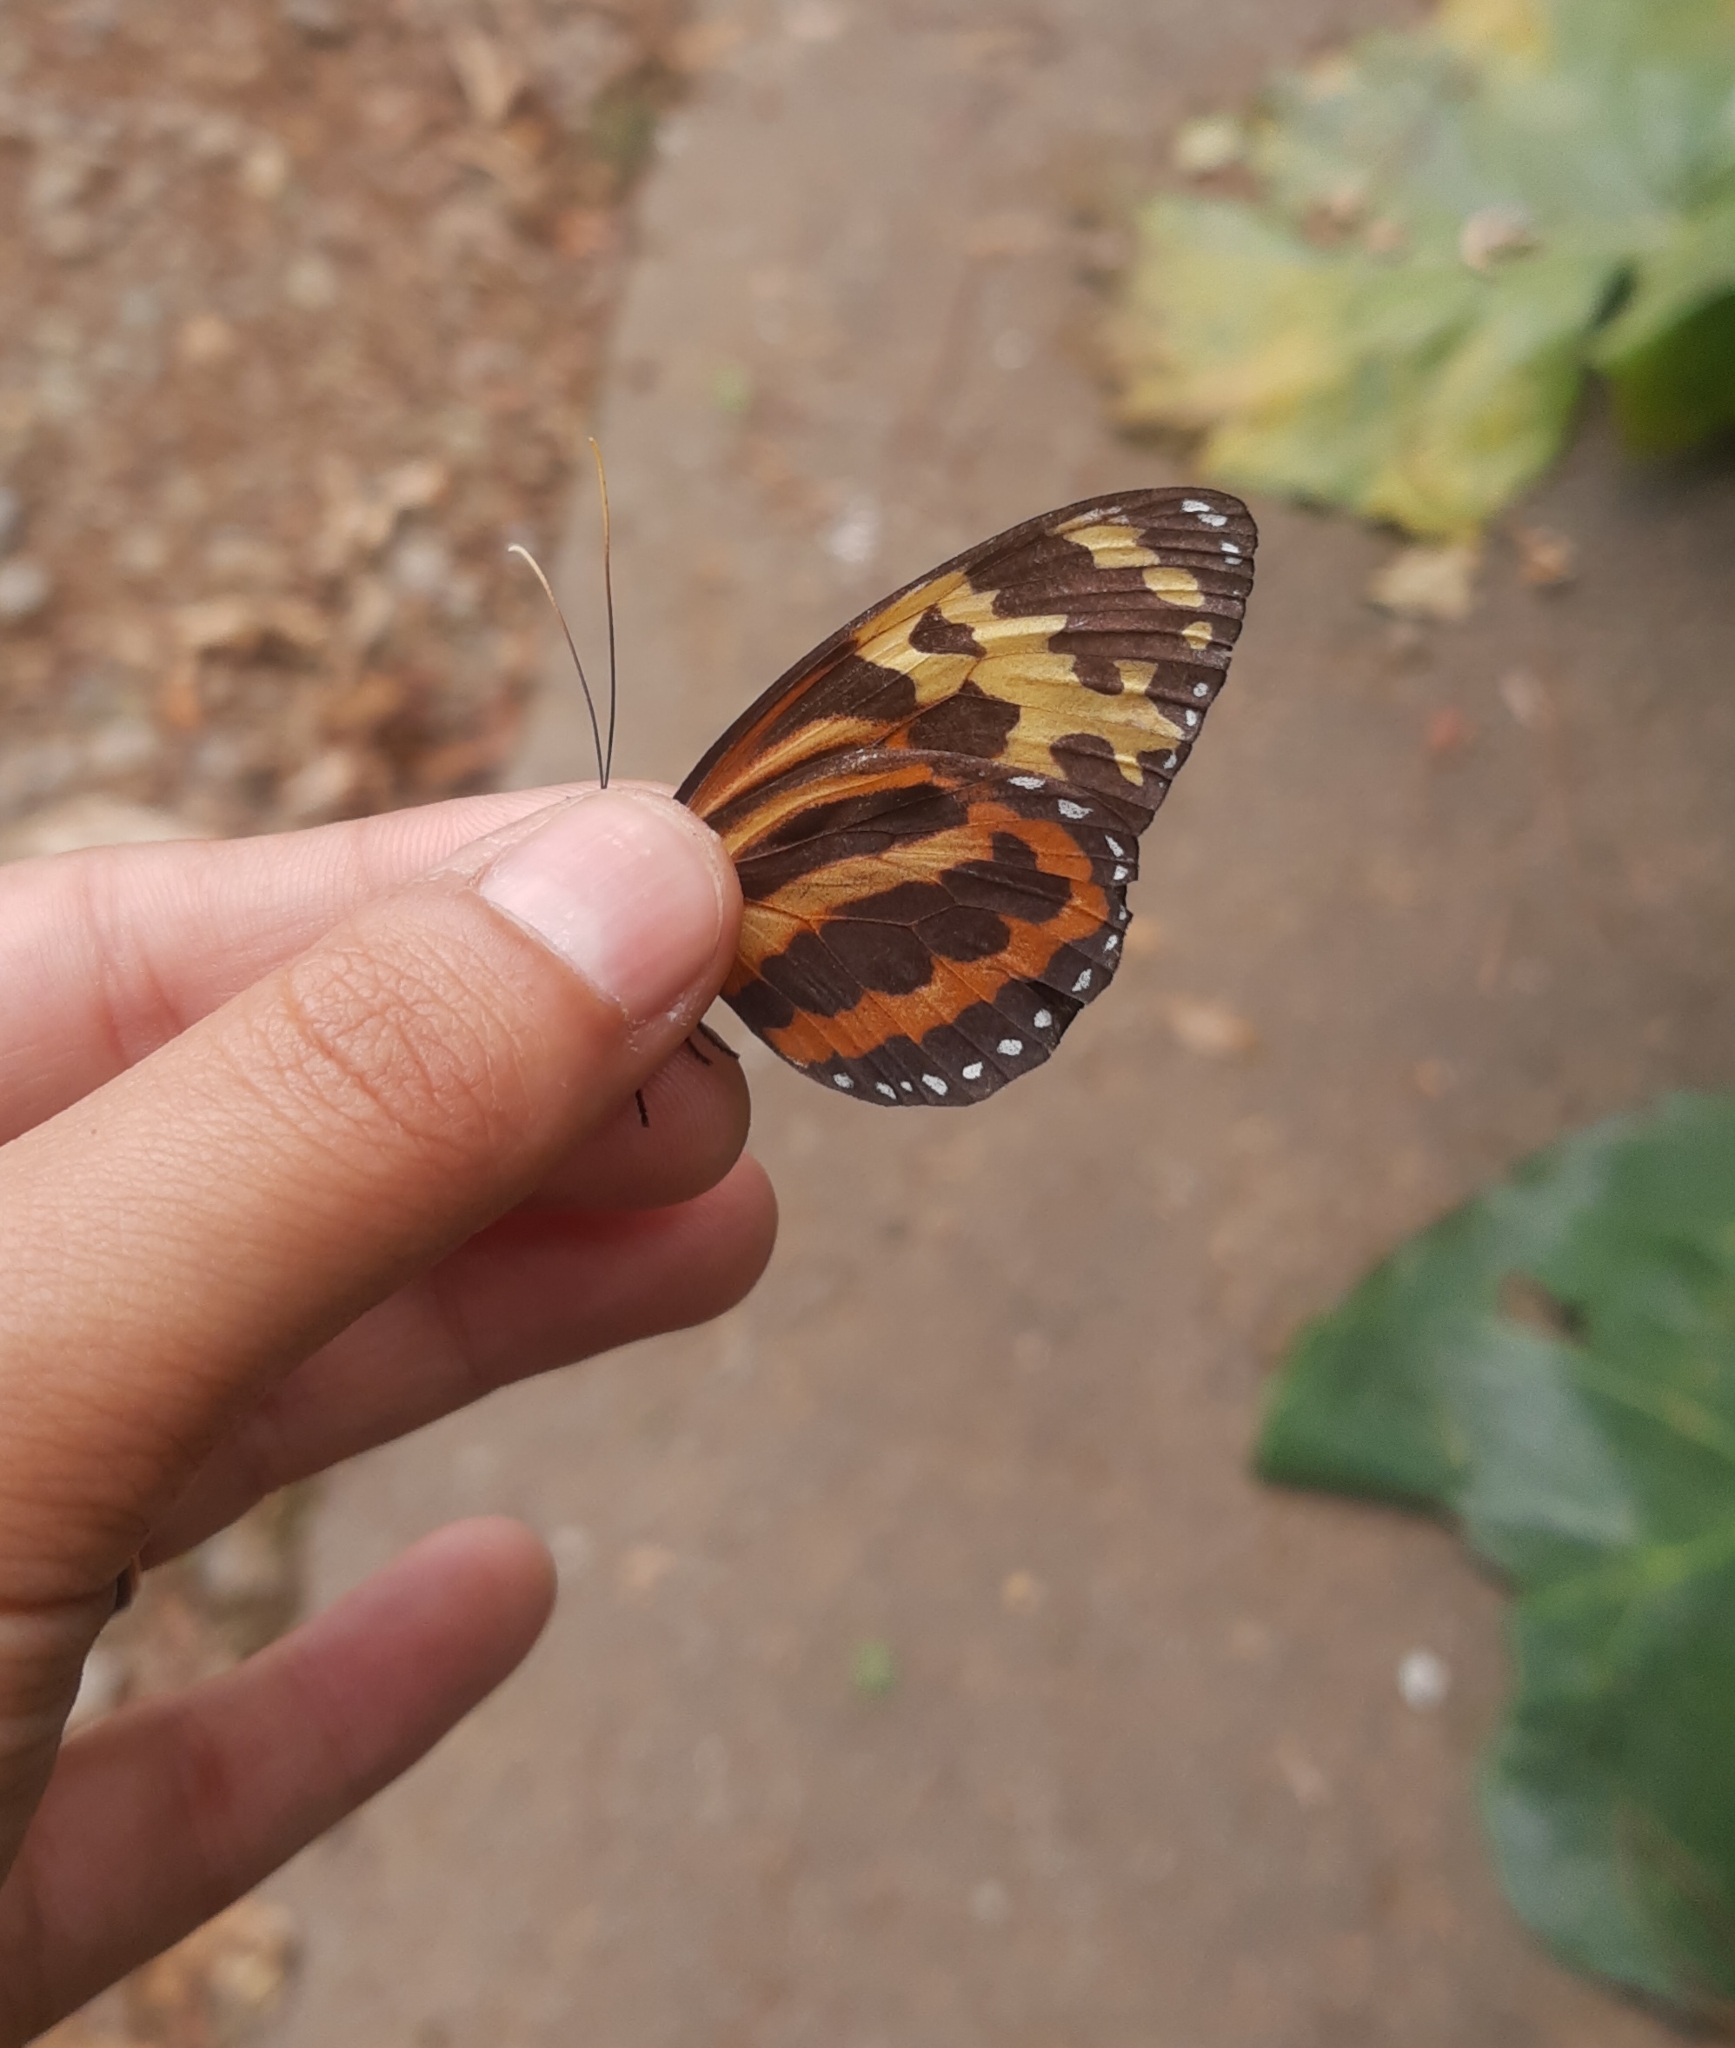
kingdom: Animalia
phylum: Arthropoda
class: Insecta
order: Lepidoptera
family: Nymphalidae
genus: Tithorea
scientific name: Tithorea harmonia
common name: Harmonia tigerwing
